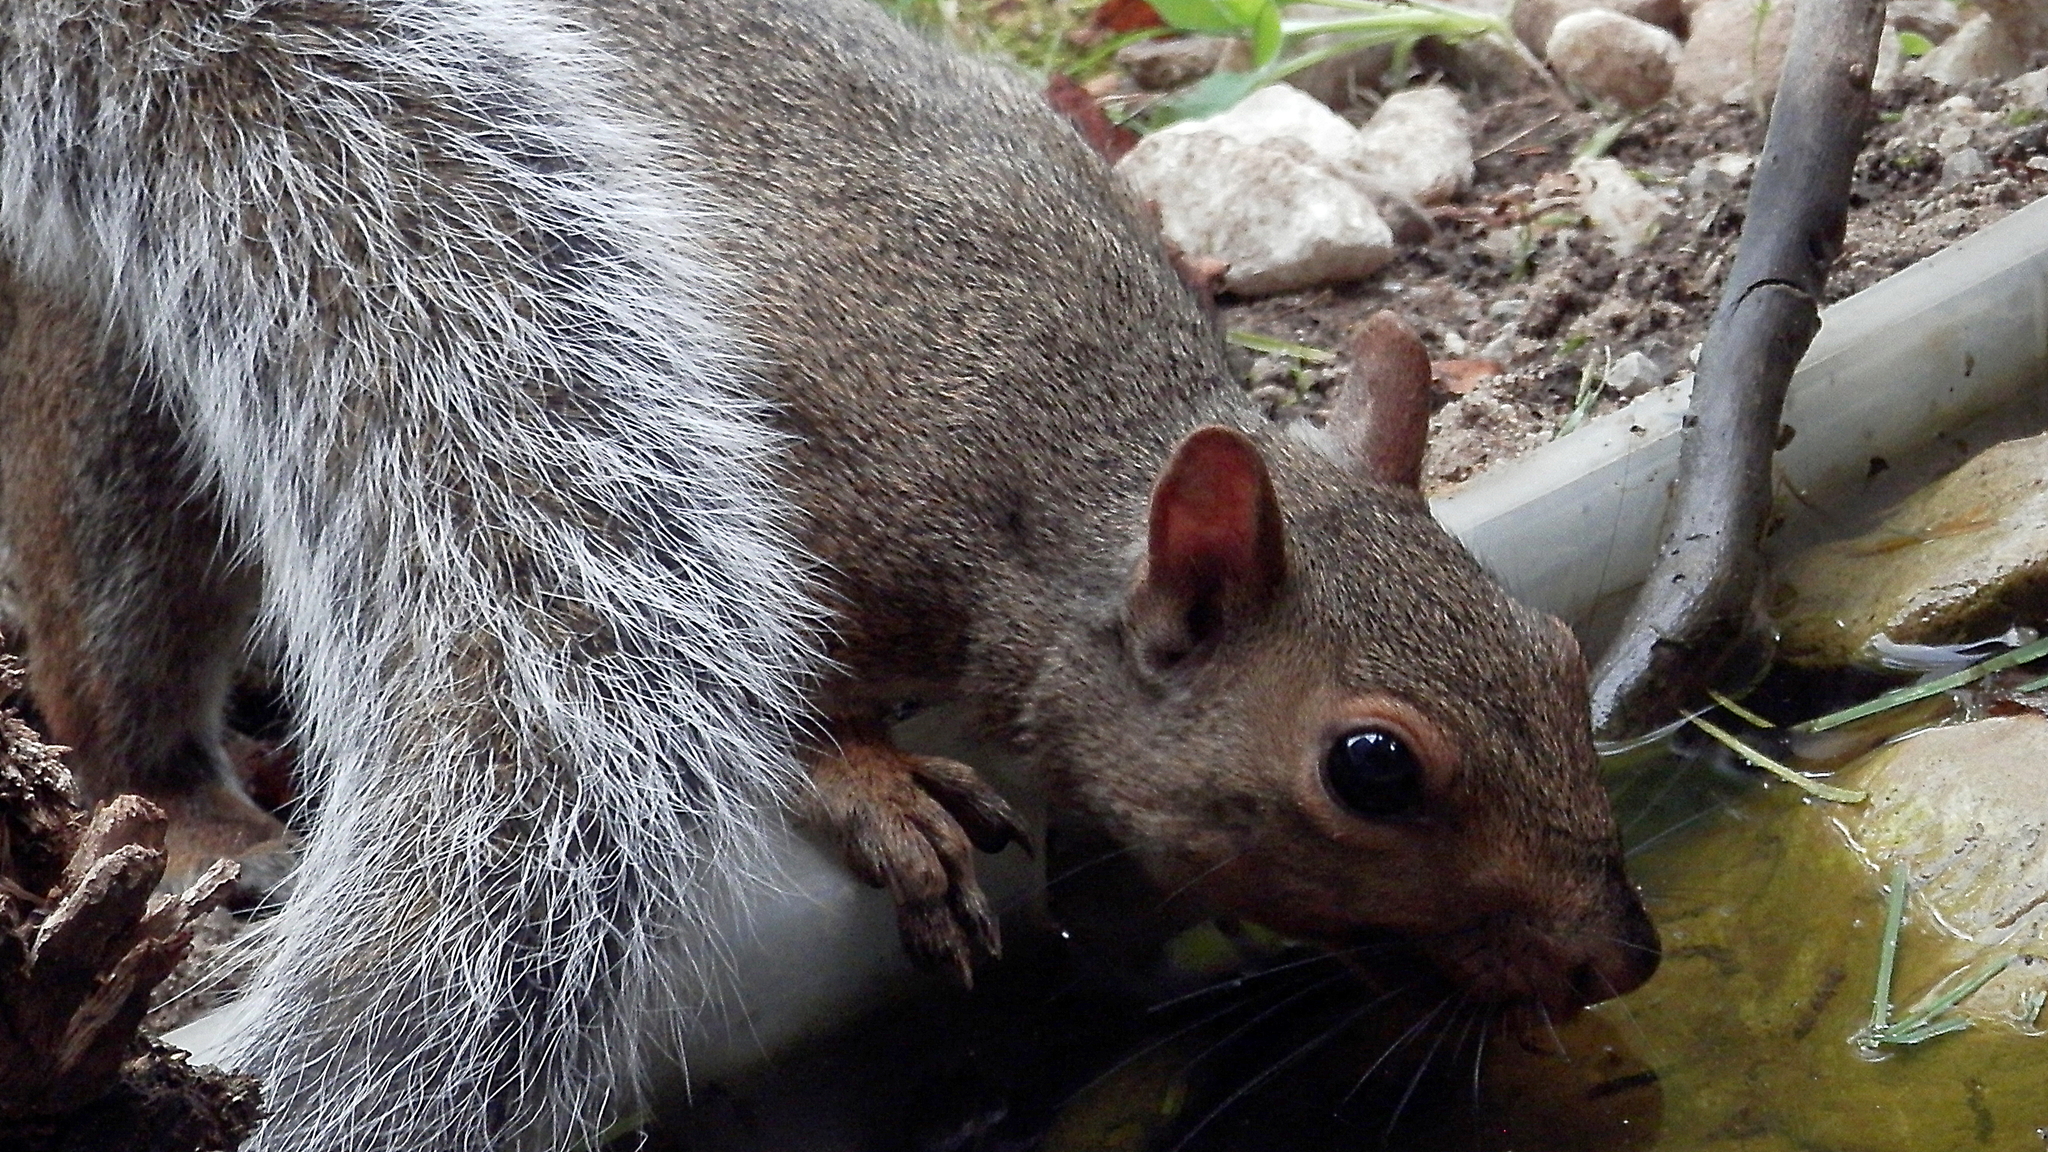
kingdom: Animalia
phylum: Chordata
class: Mammalia
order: Rodentia
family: Sciuridae
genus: Sciurus
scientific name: Sciurus carolinensis
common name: Eastern gray squirrel
